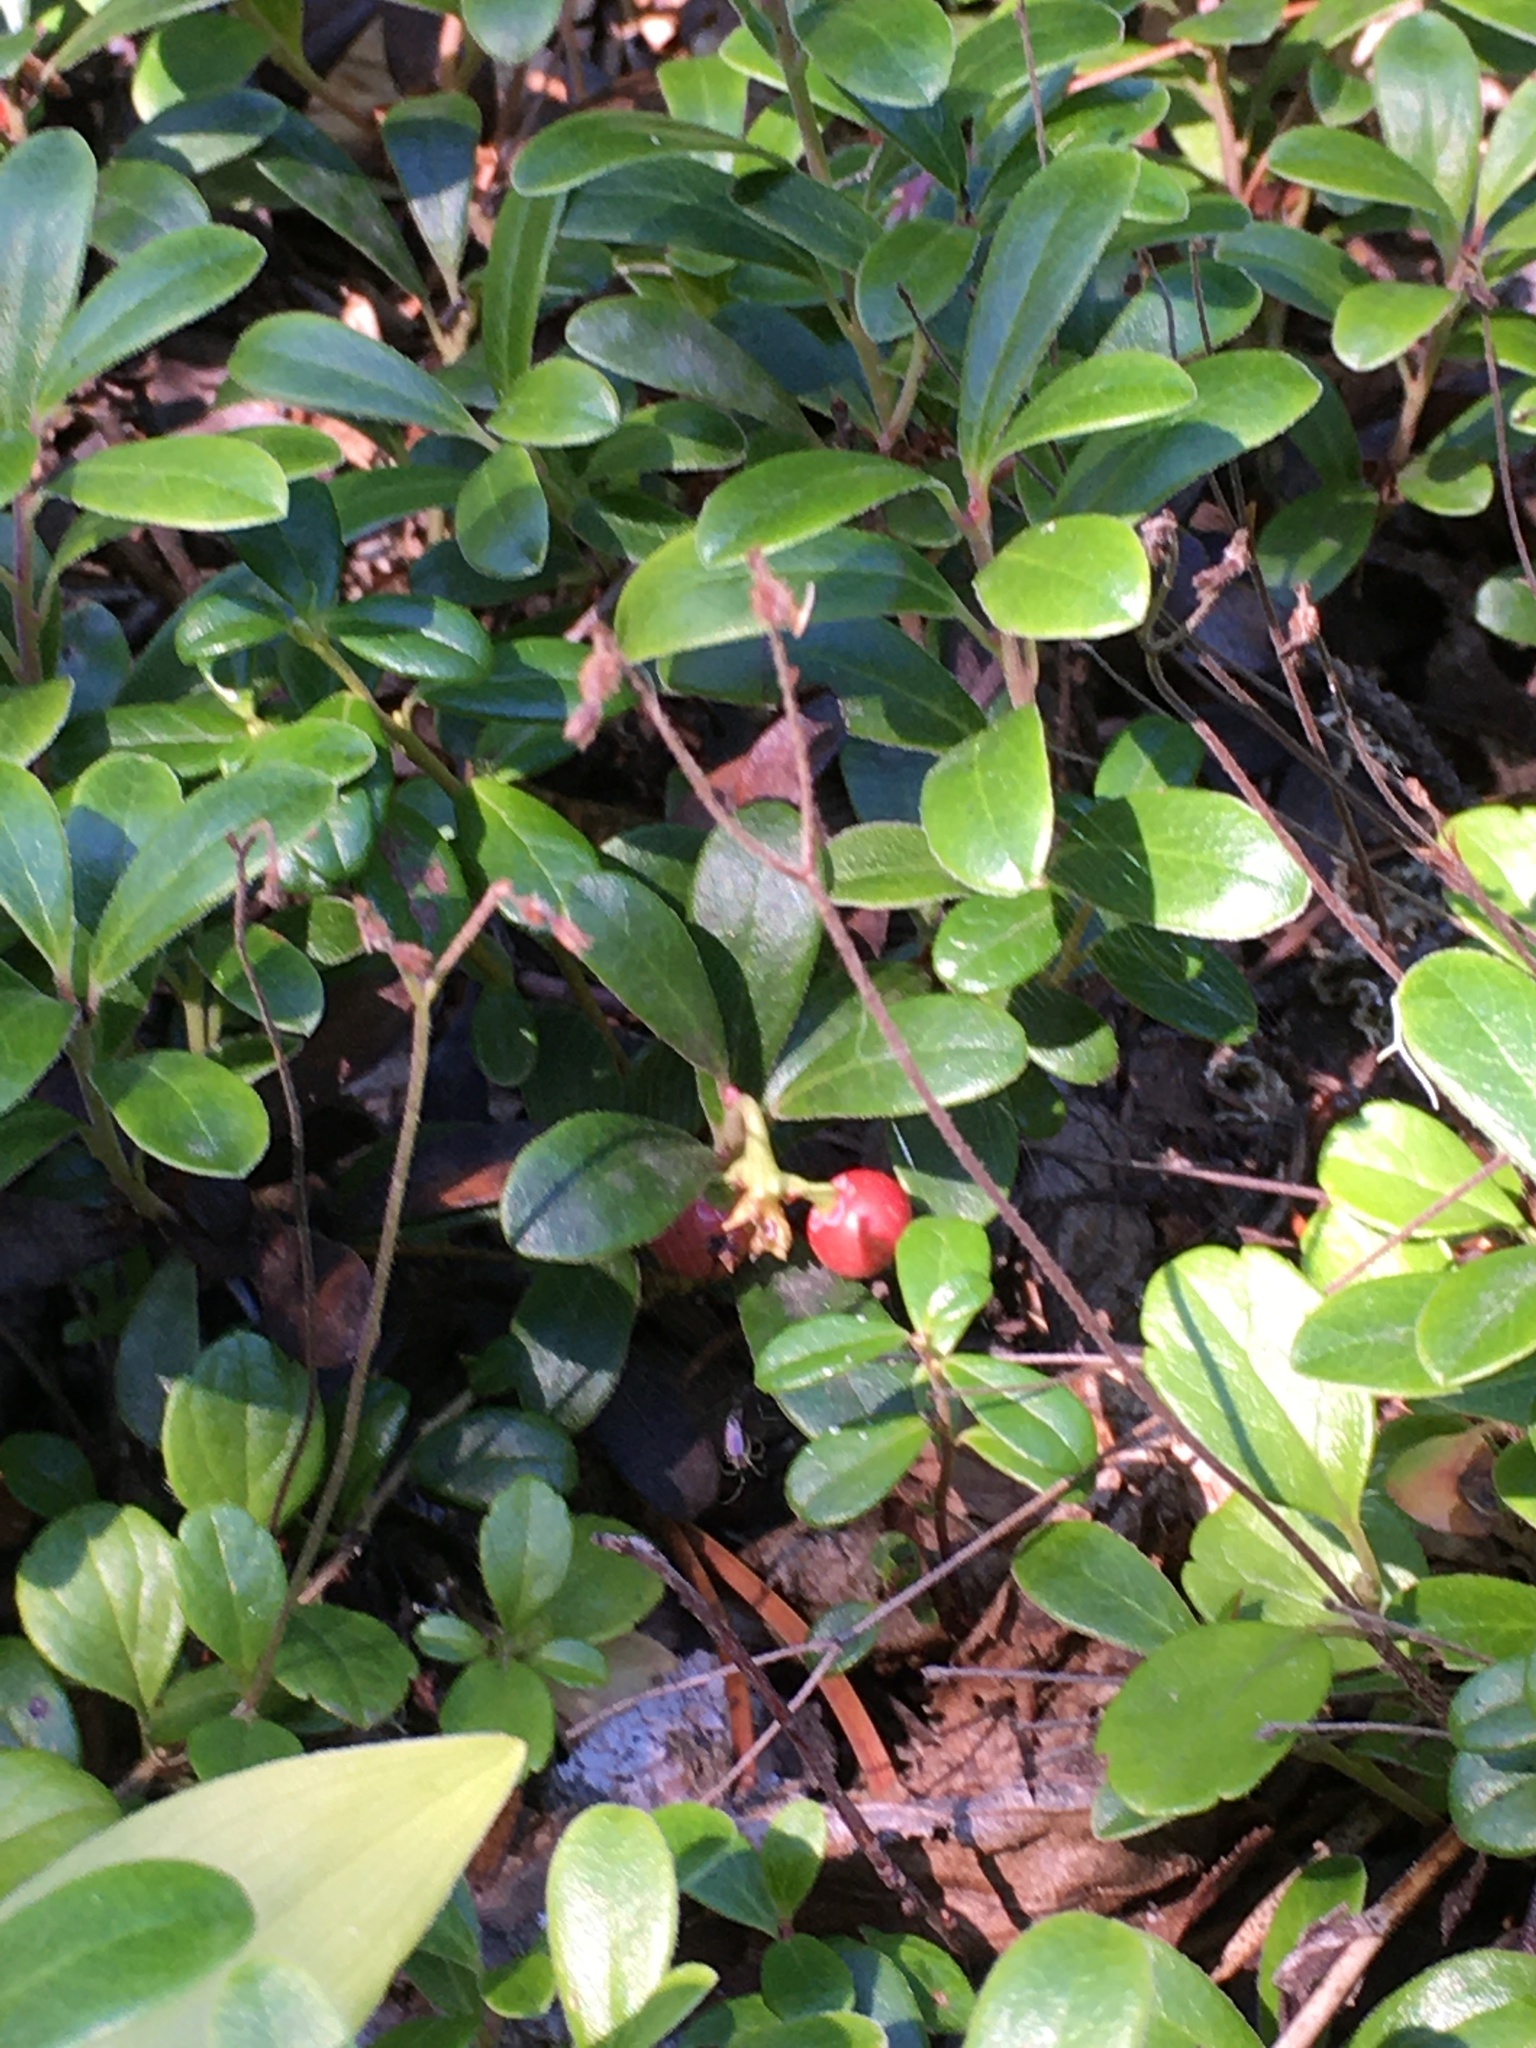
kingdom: Plantae
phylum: Tracheophyta
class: Magnoliopsida
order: Ericales
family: Ericaceae
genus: Arctostaphylos
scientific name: Arctostaphylos uva-ursi
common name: Bearberry
